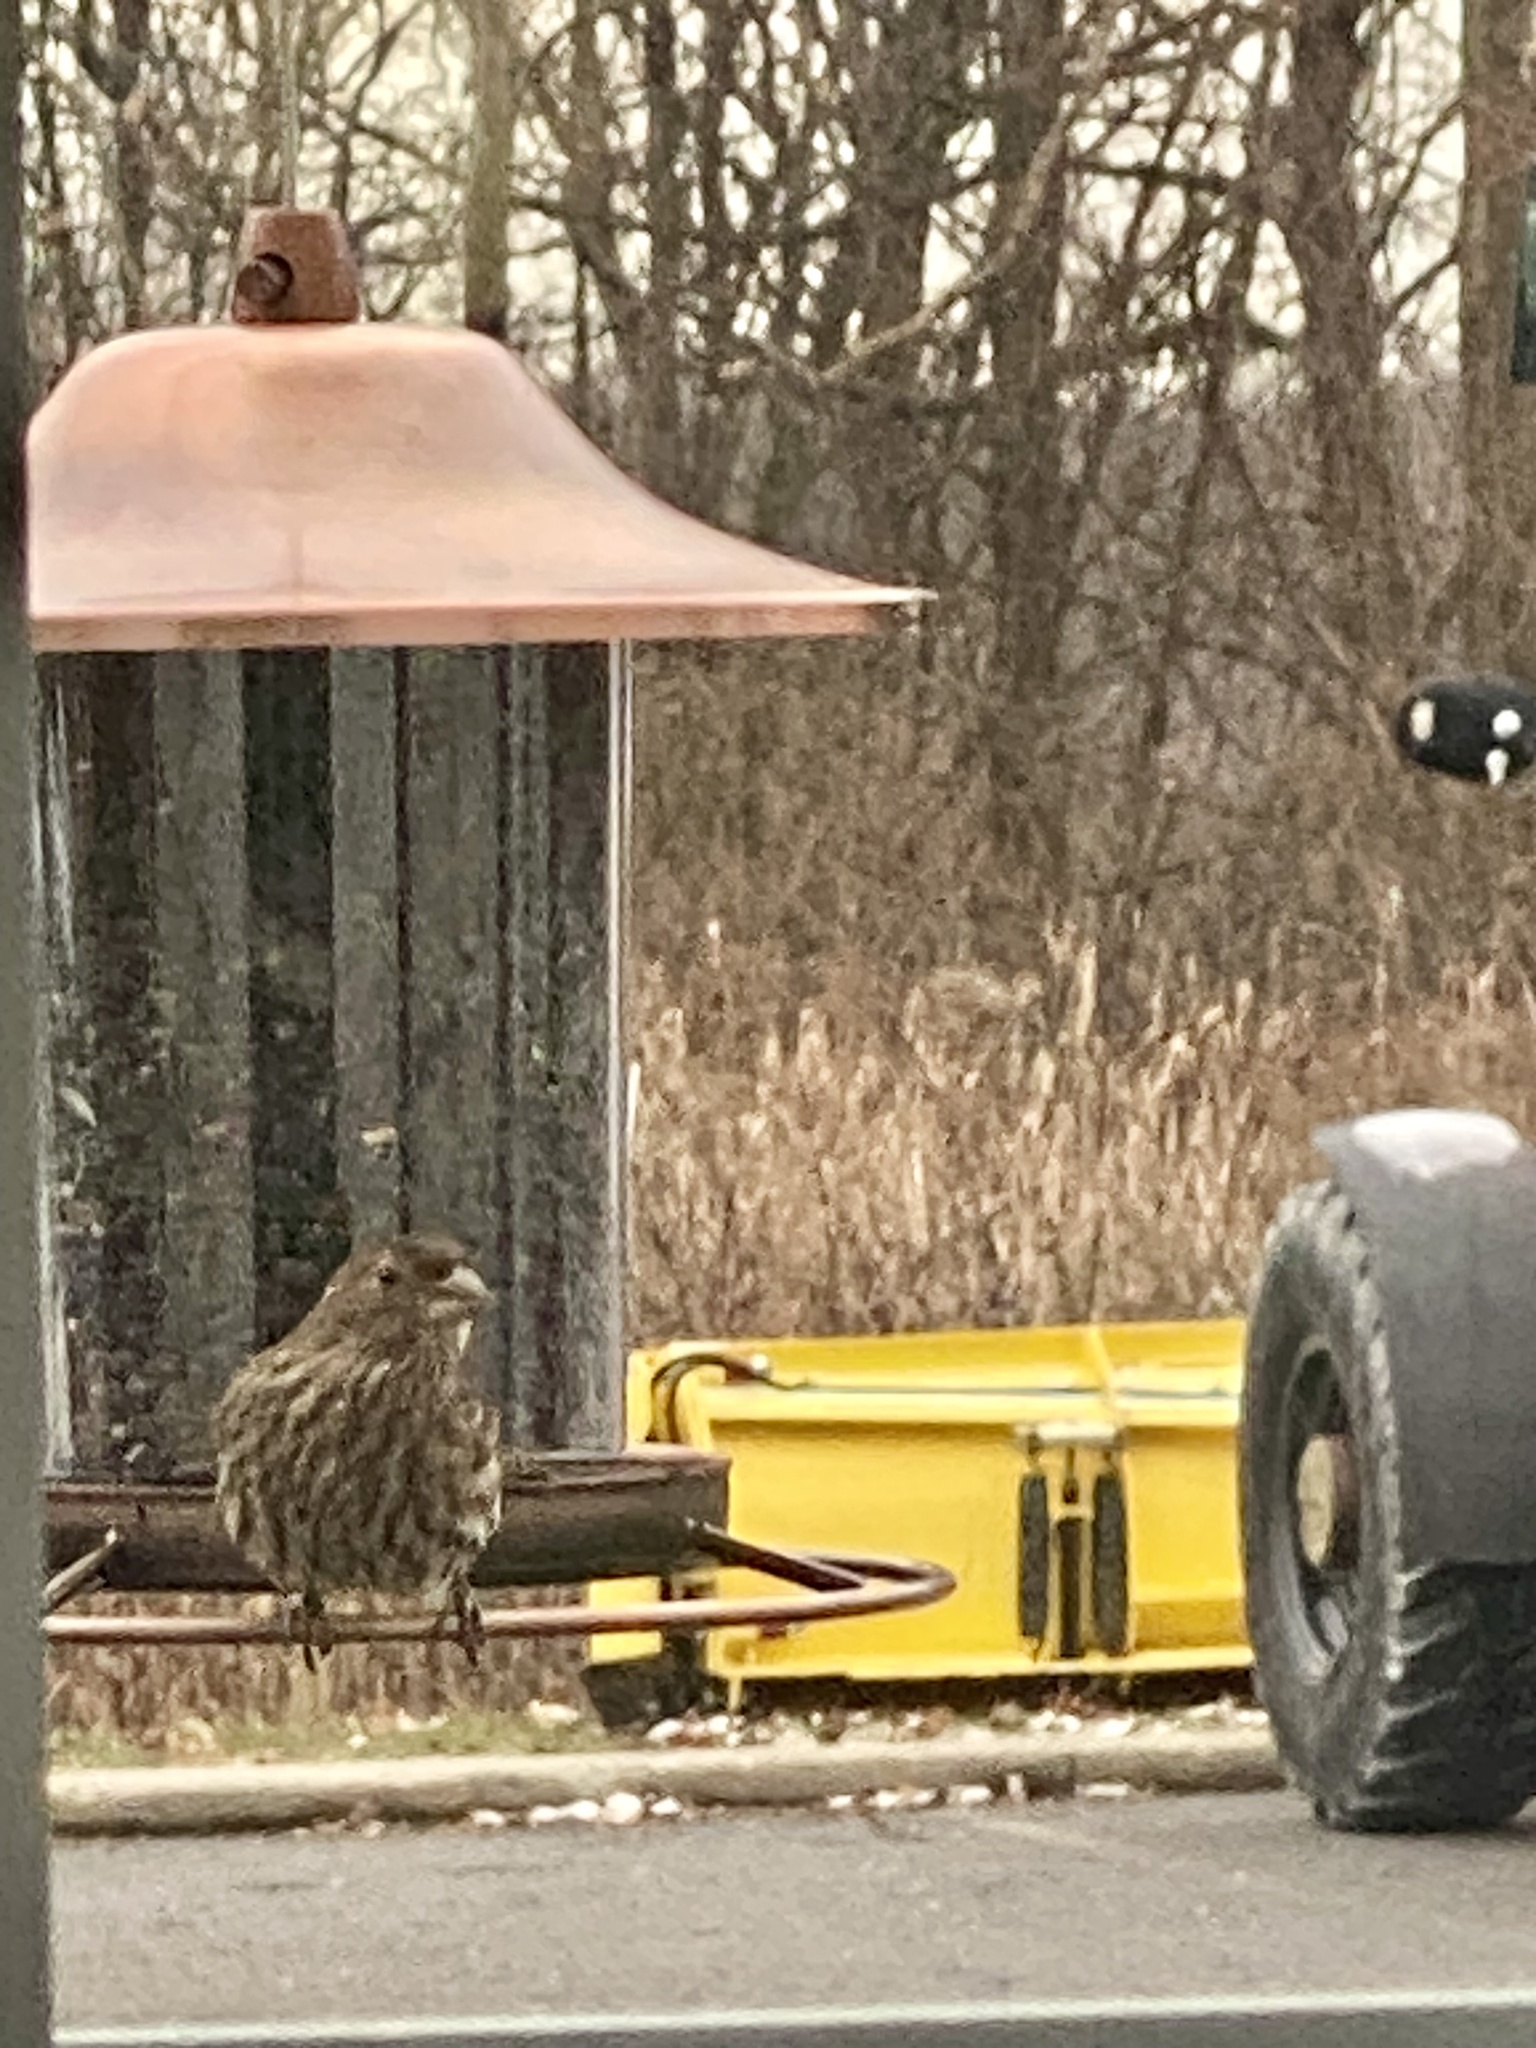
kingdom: Animalia
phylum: Chordata
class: Aves
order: Passeriformes
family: Fringillidae
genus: Haemorhous
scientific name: Haemorhous mexicanus
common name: House finch
